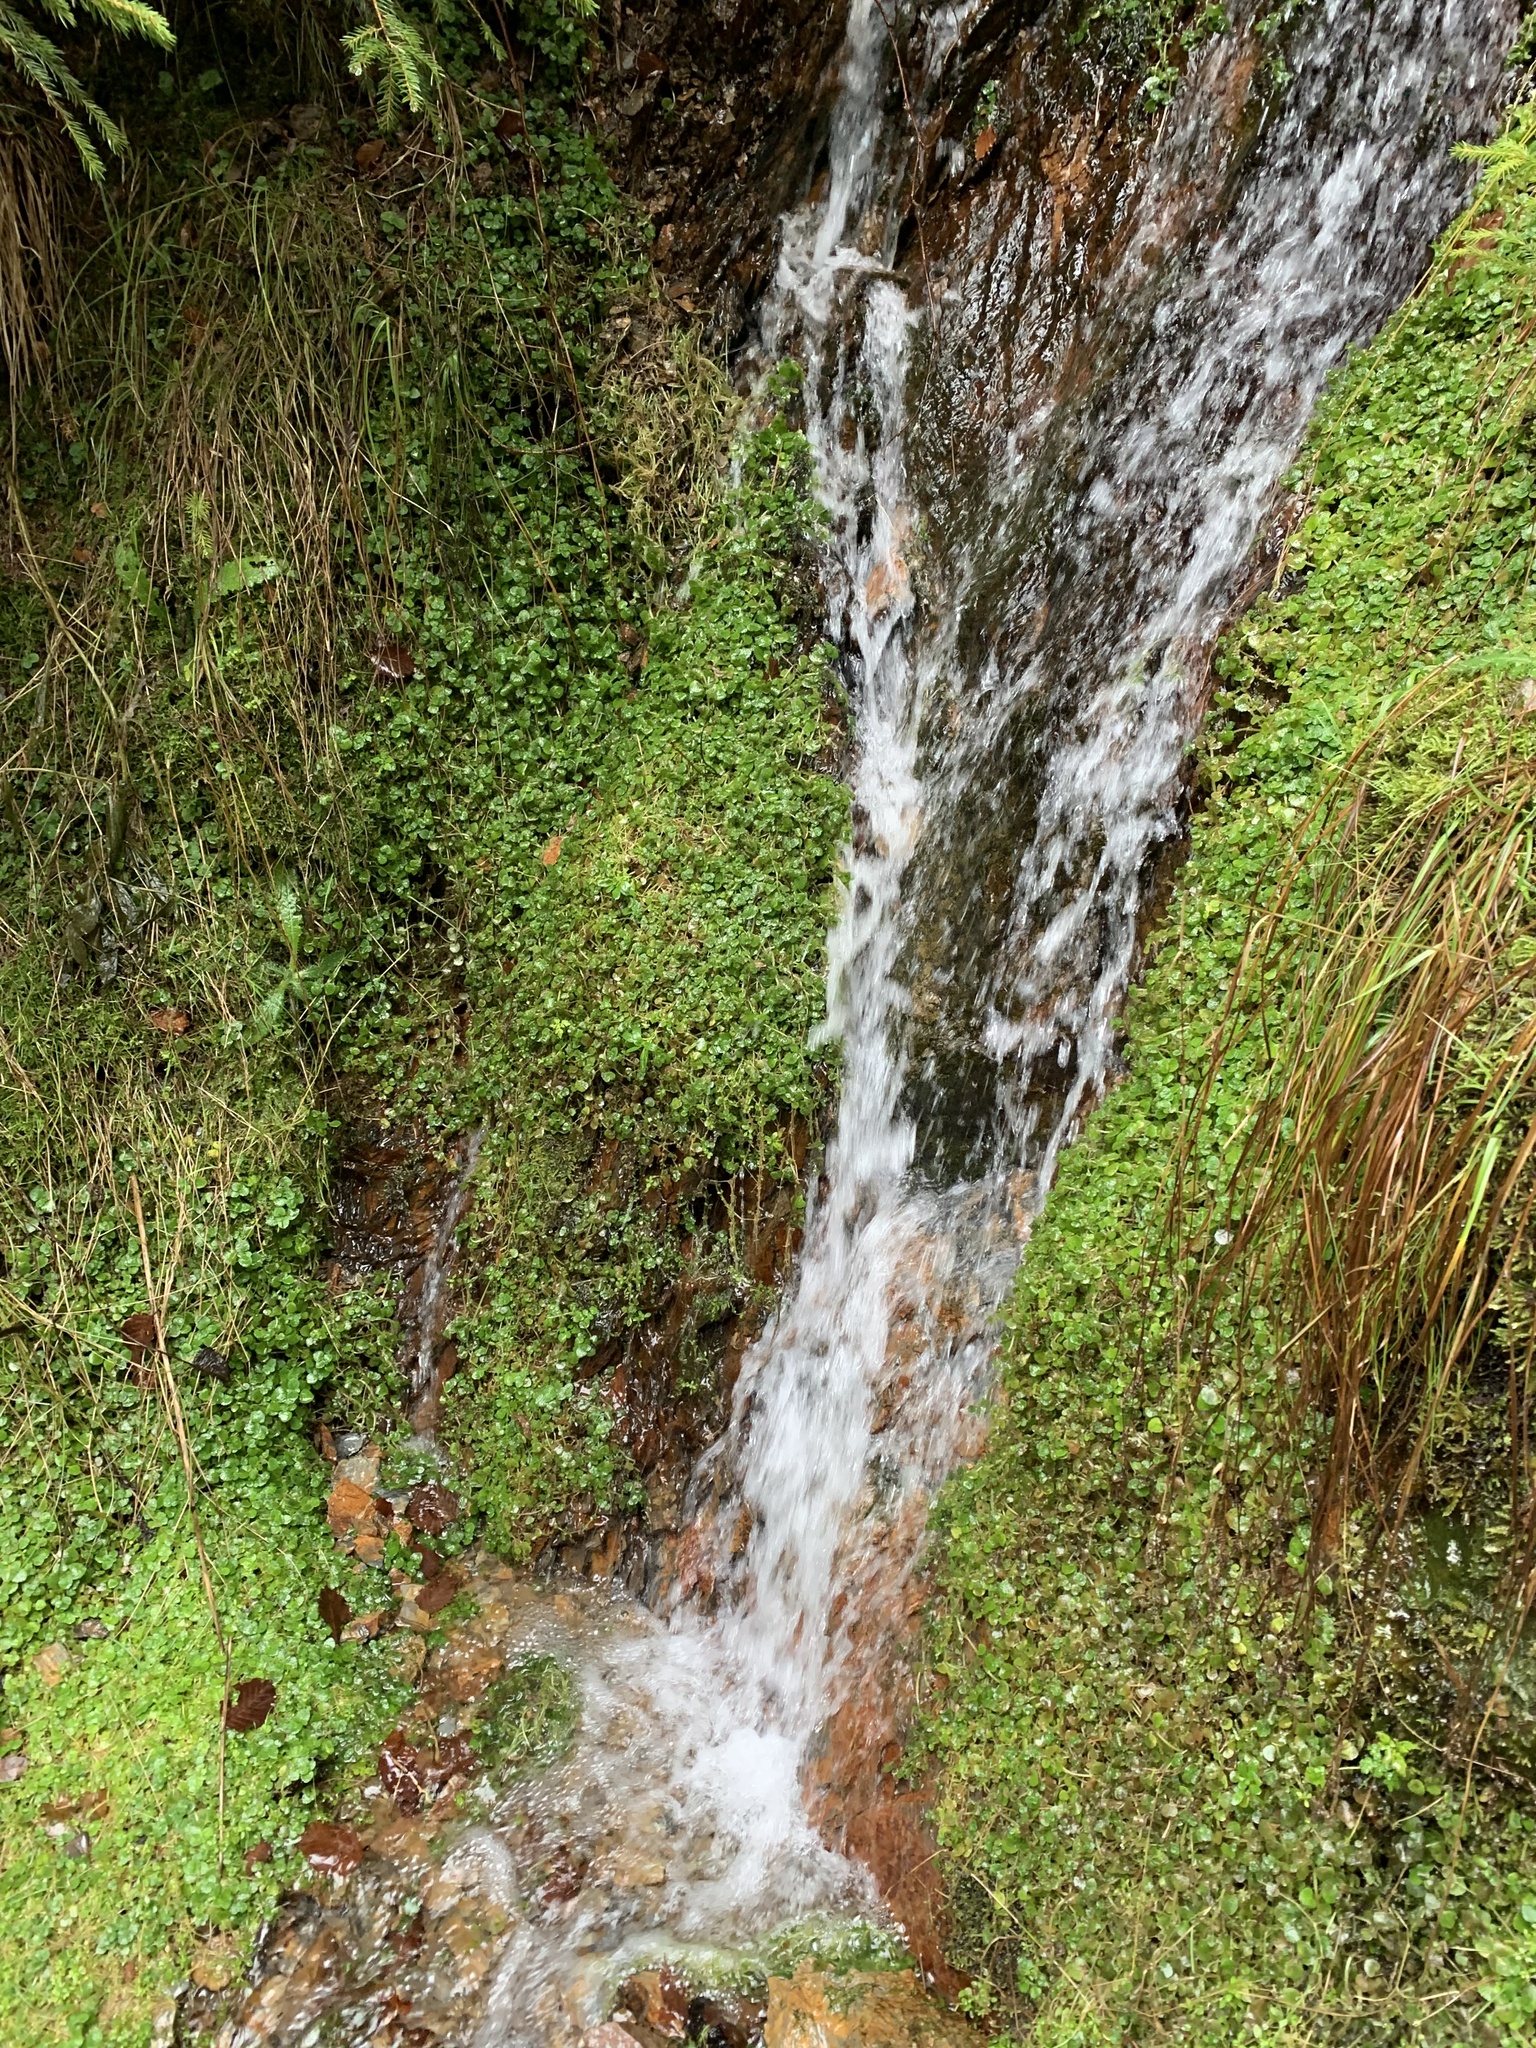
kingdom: Plantae
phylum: Tracheophyta
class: Magnoliopsida
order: Saxifragales
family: Saxifragaceae
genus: Chrysosplenium
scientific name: Chrysosplenium oppositifolium
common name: Opposite-leaved golden-saxifrage
